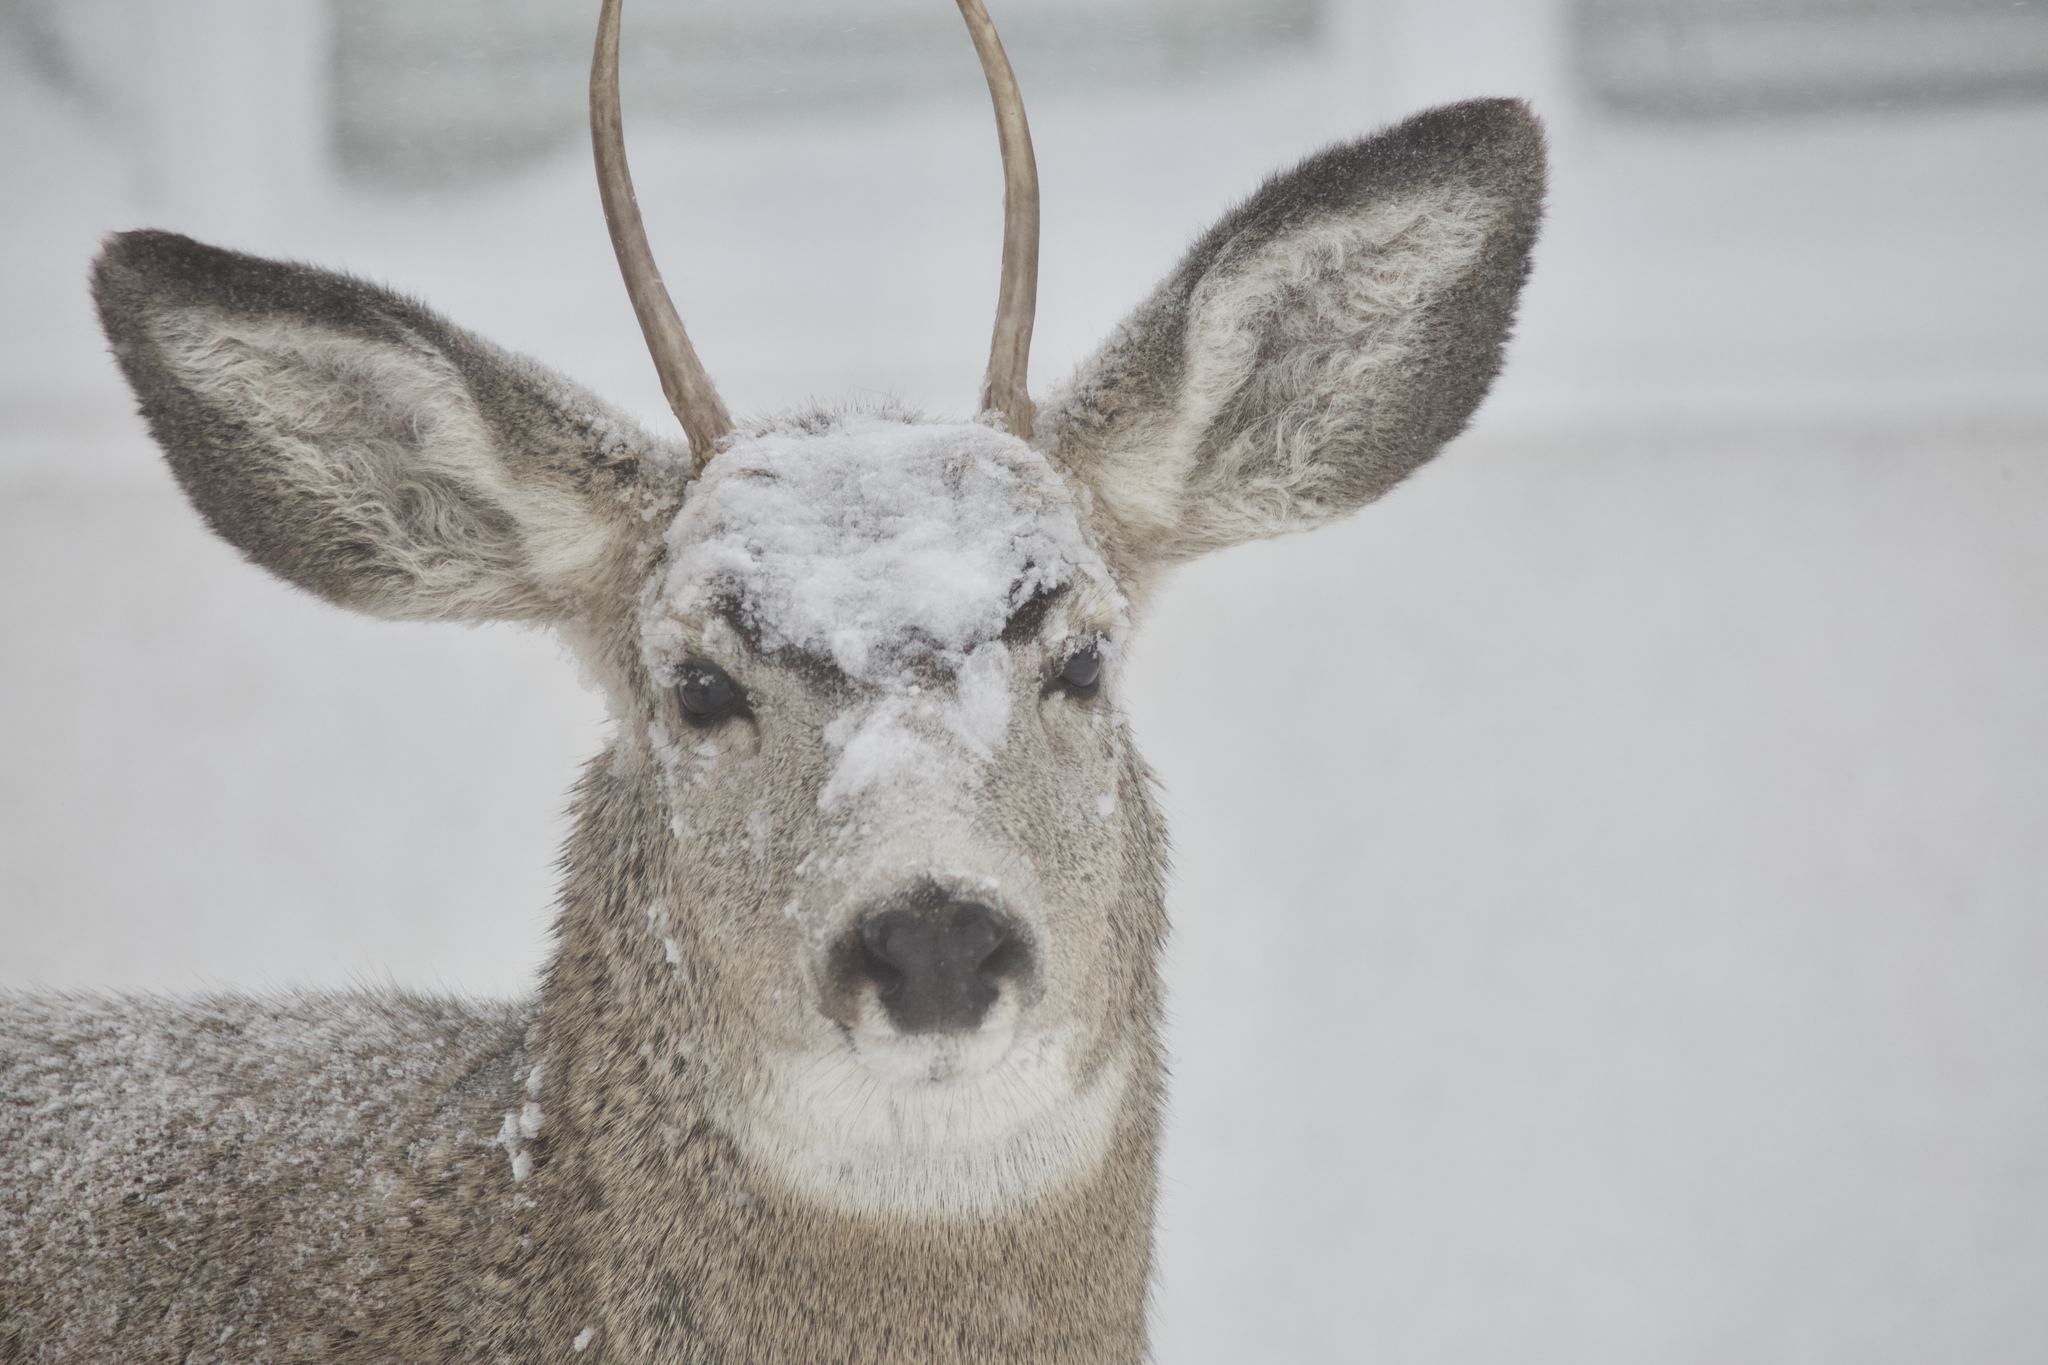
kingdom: Animalia
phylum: Chordata
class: Mammalia
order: Artiodactyla
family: Cervidae
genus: Odocoileus
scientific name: Odocoileus hemionus
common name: Mule deer
